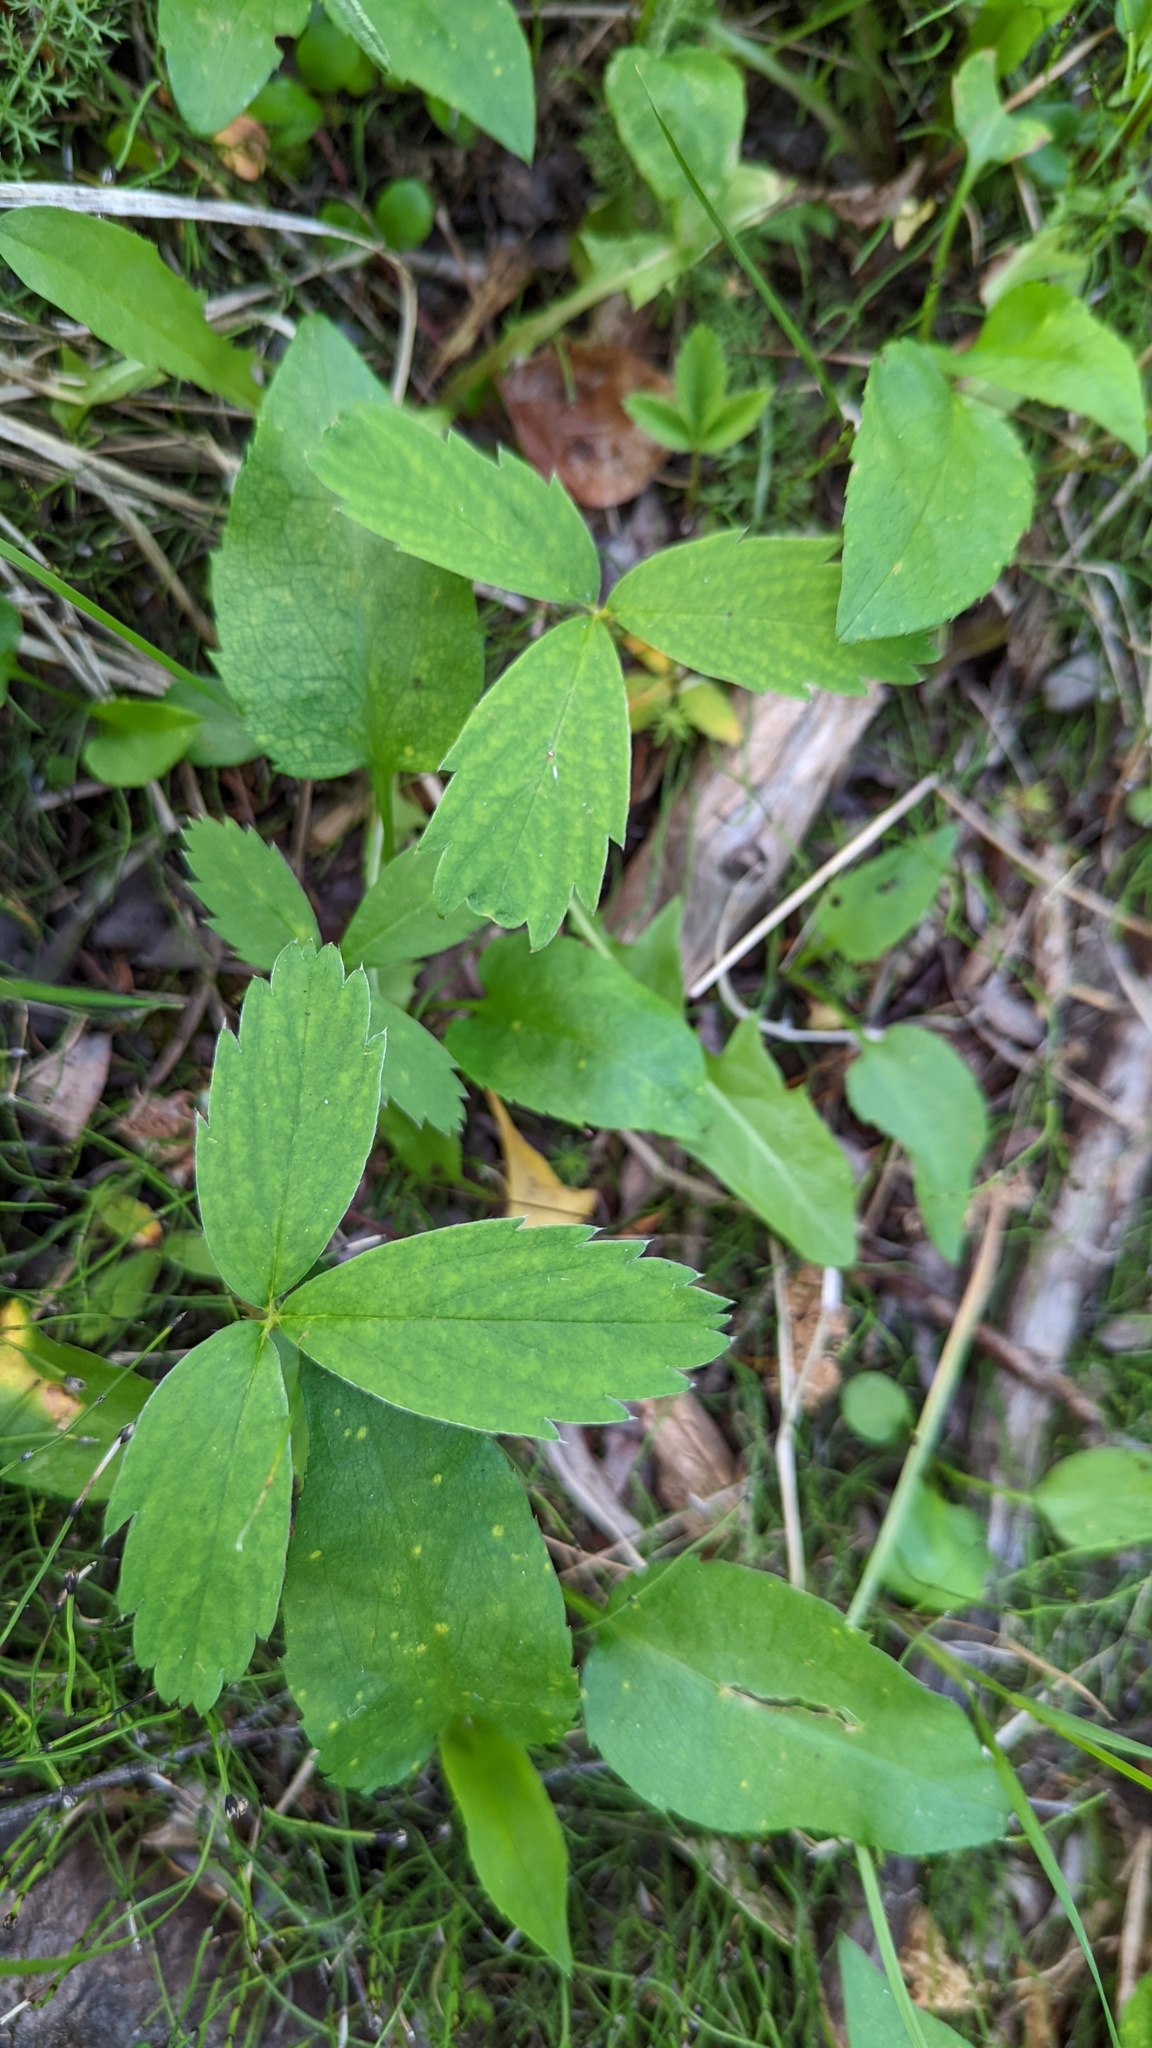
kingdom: Plantae
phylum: Tracheophyta
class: Magnoliopsida
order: Rosales
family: Rosaceae
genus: Fragaria
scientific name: Fragaria virginiana
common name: Thickleaved wild strawberry
